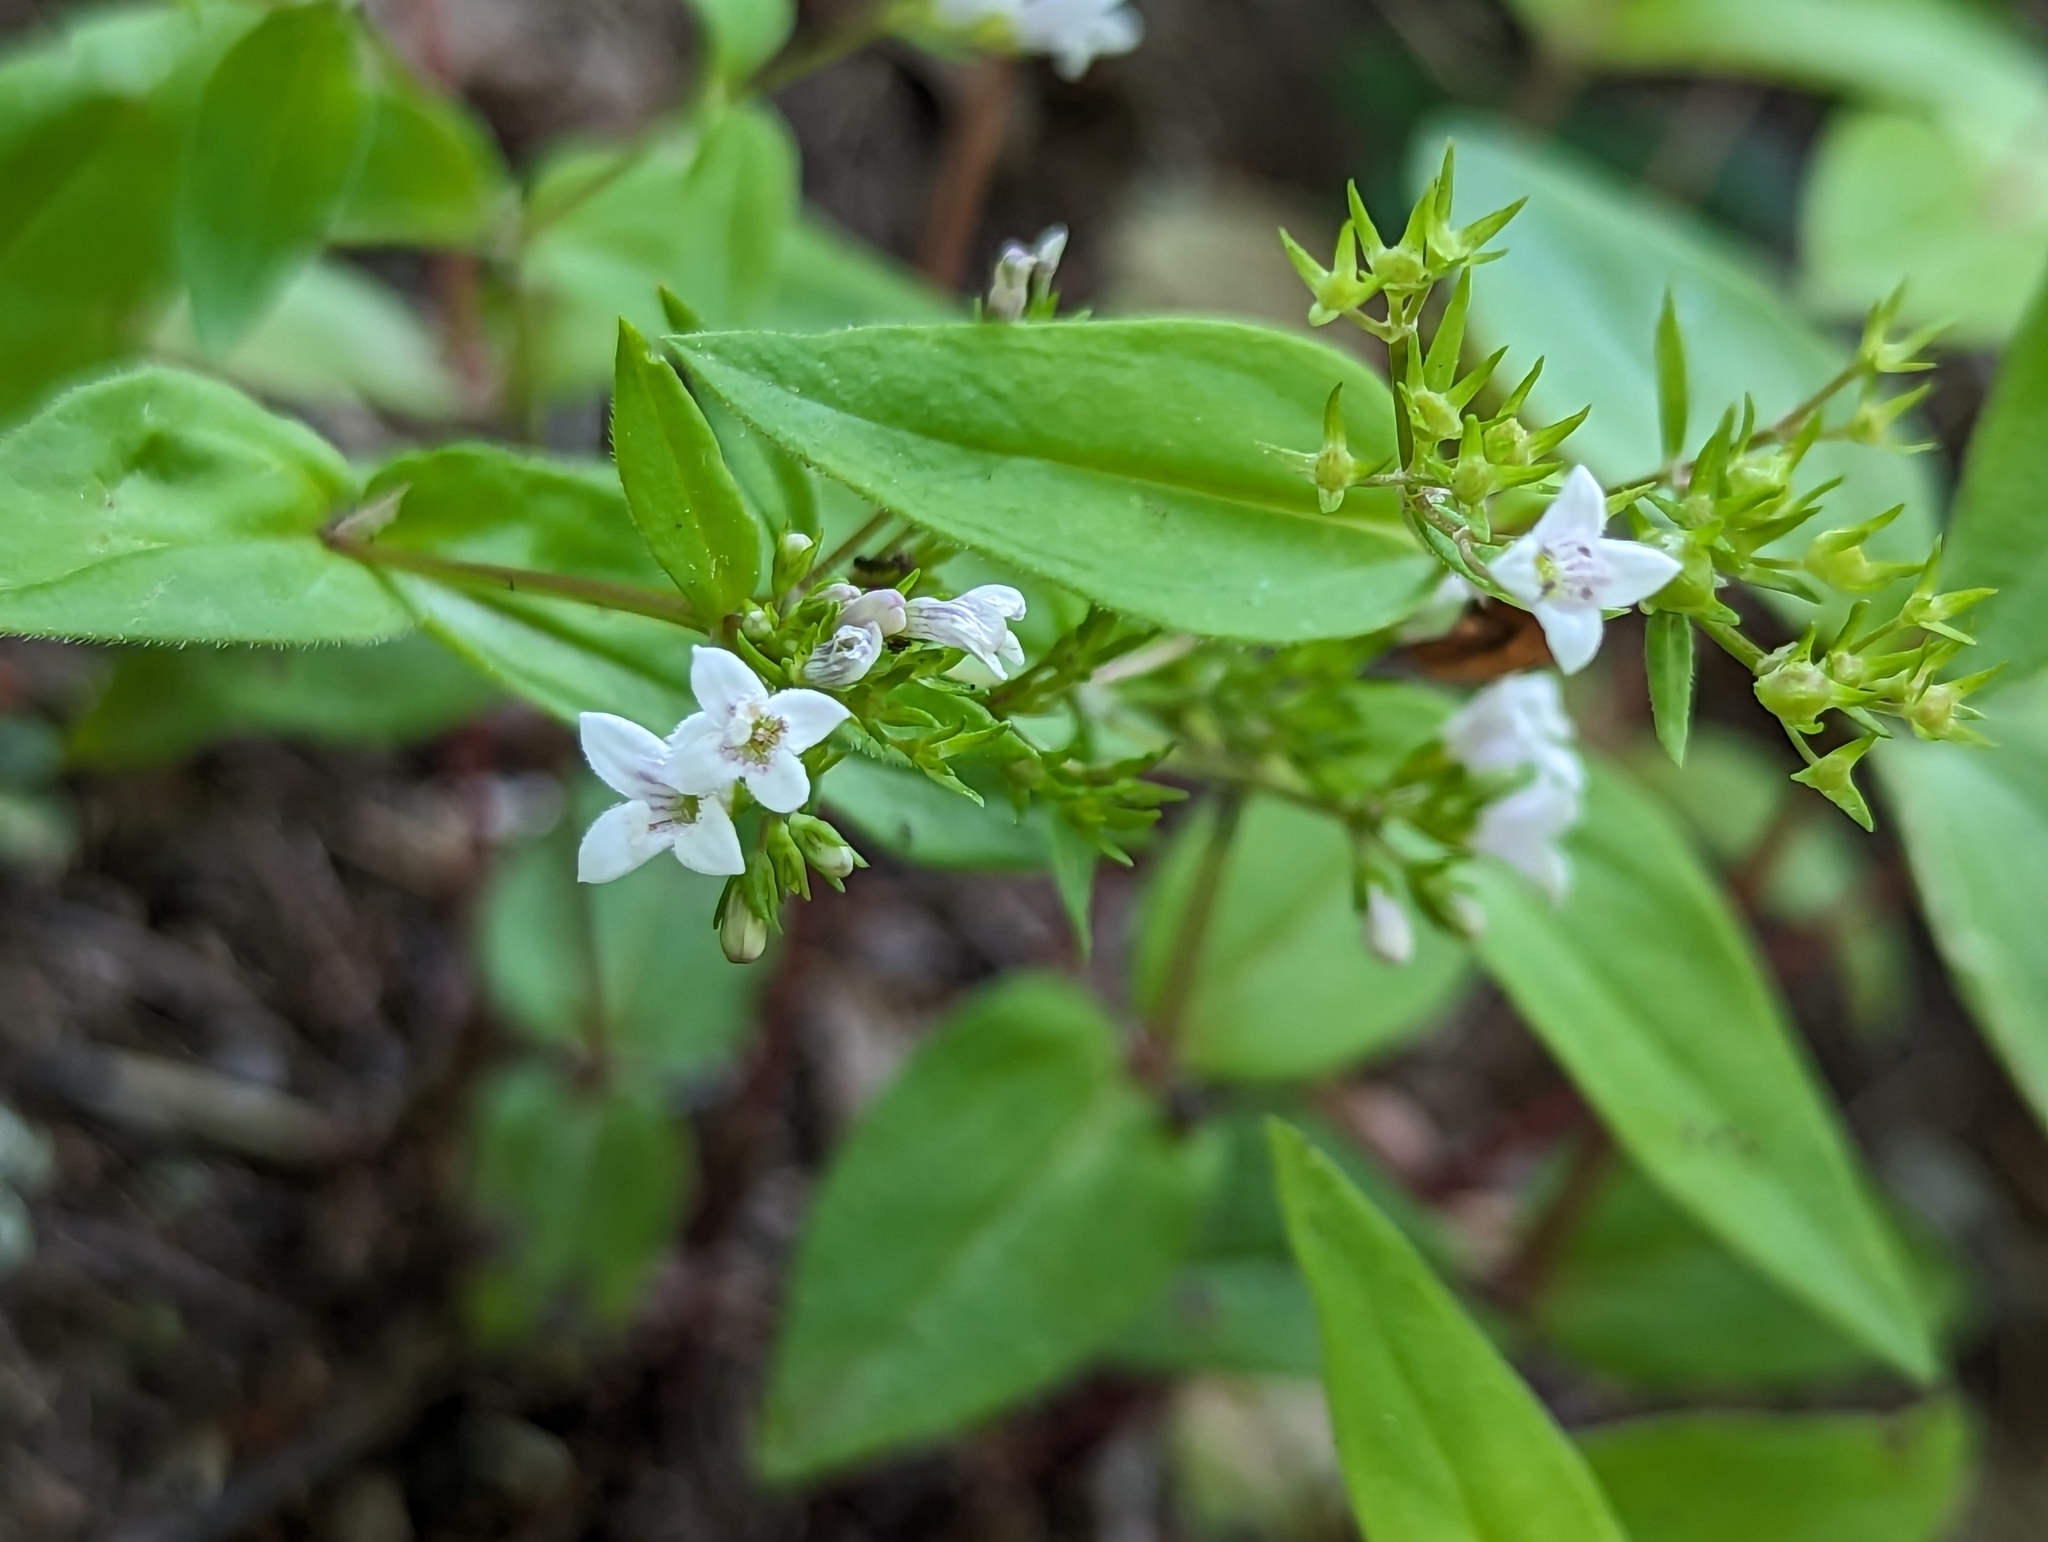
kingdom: Plantae
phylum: Tracheophyta
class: Magnoliopsida
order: Gentianales
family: Rubiaceae
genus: Houstonia
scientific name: Houstonia purpurea
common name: Summer bluet
